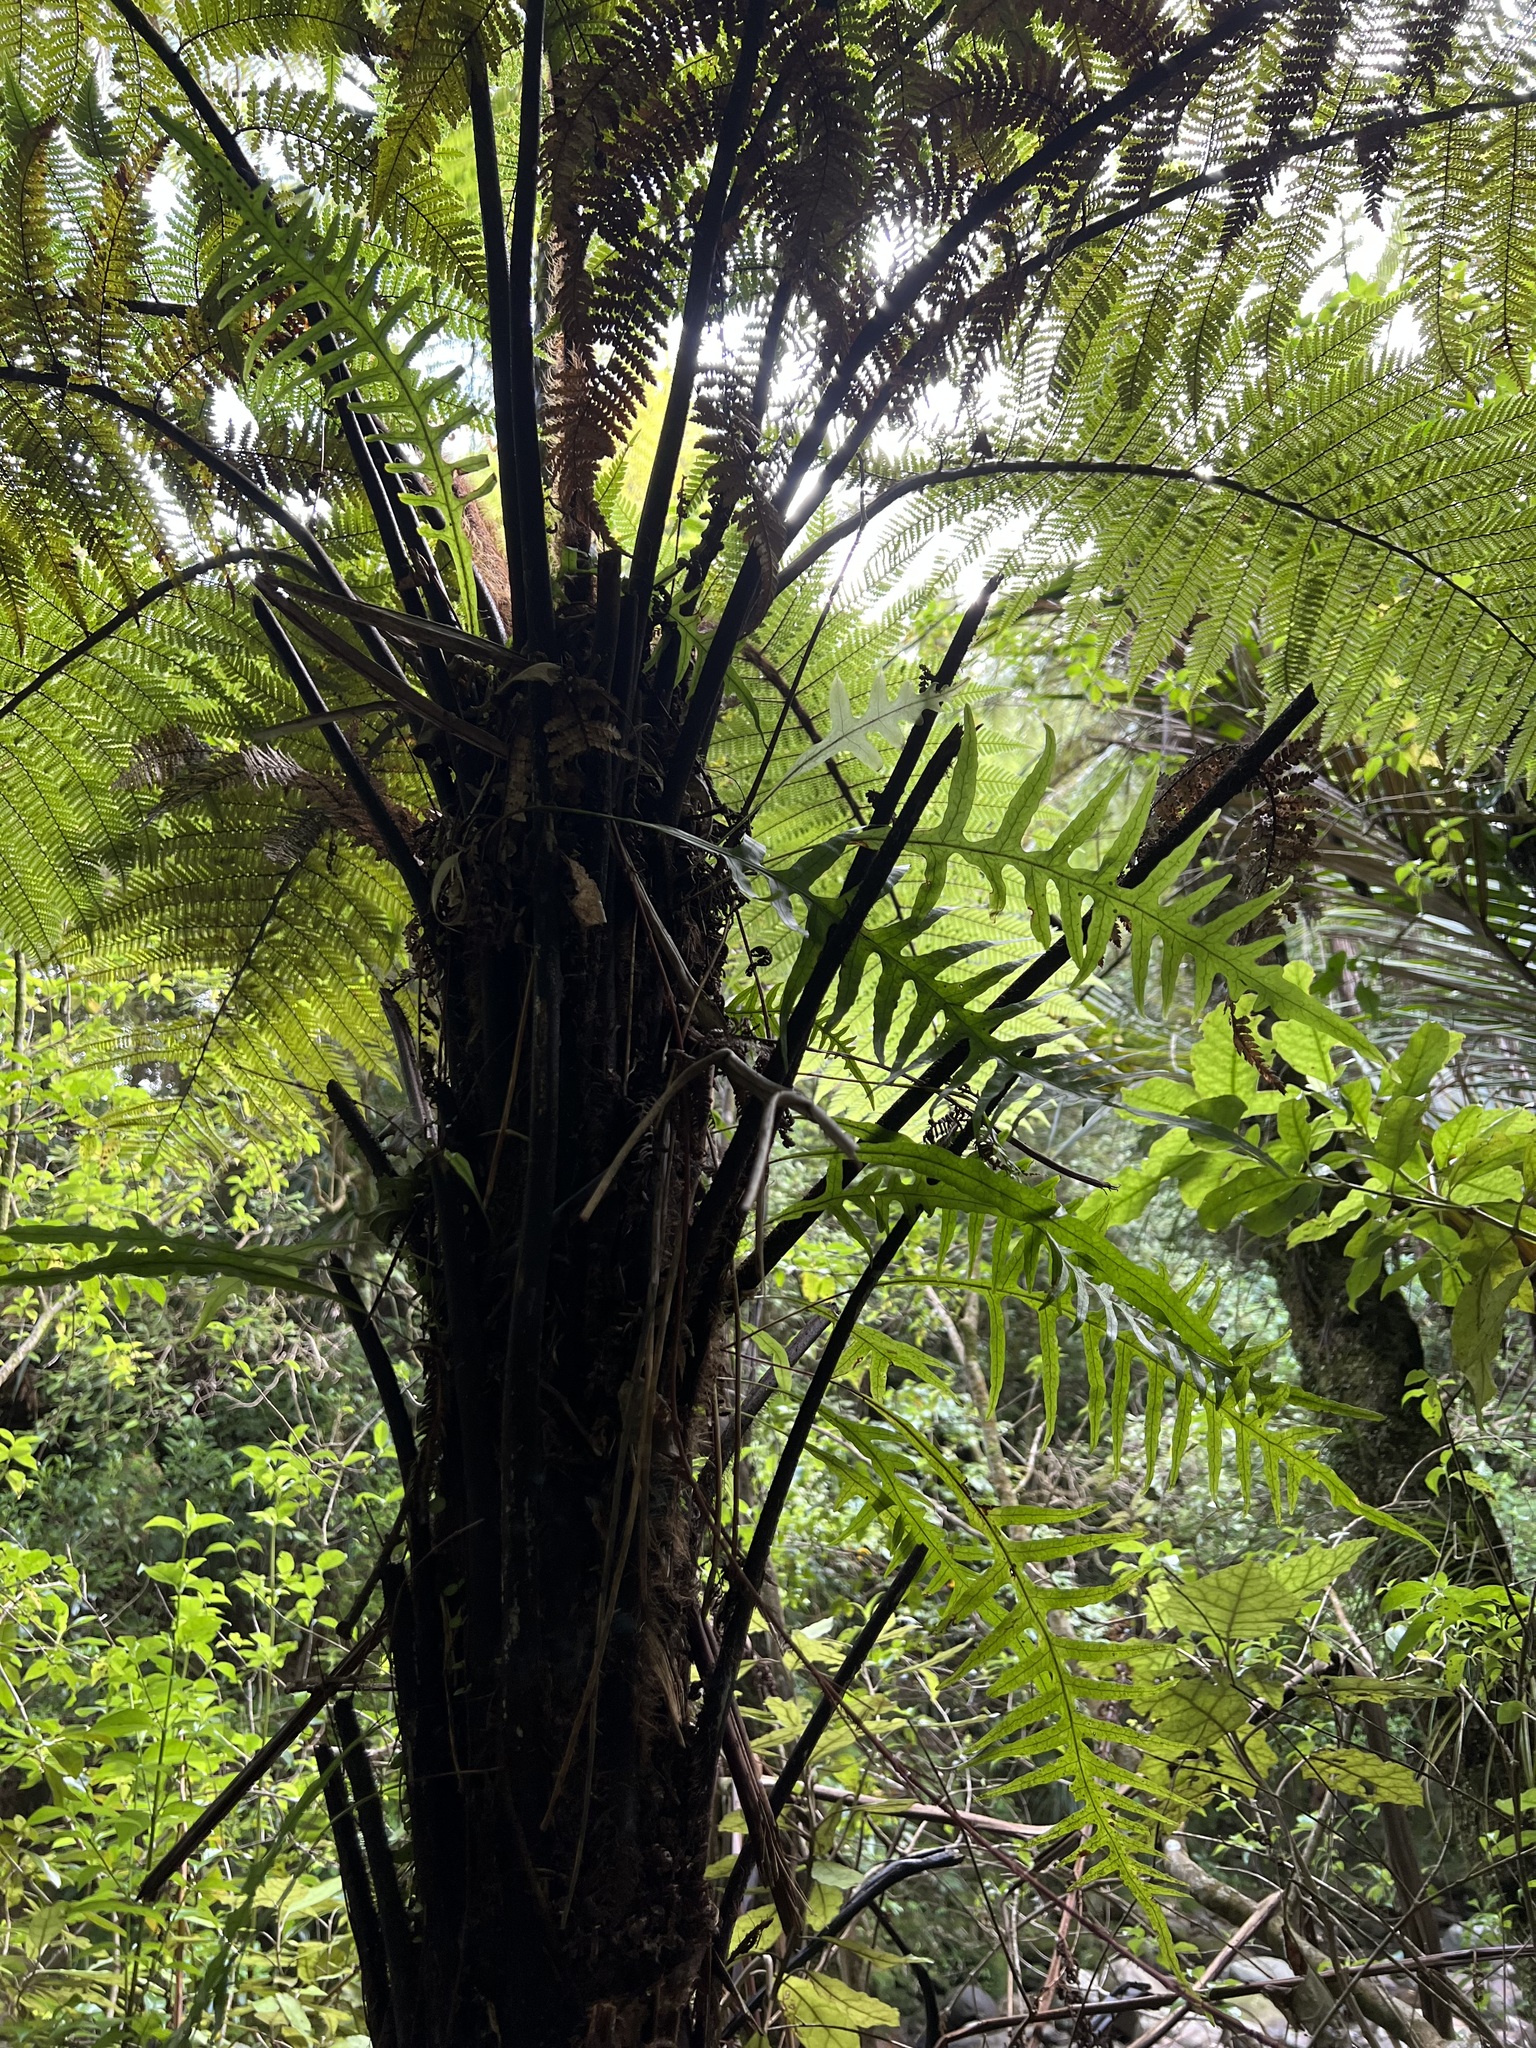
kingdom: Plantae
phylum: Tracheophyta
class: Polypodiopsida
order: Polypodiales
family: Polypodiaceae
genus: Lecanopteris
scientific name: Lecanopteris scandens
